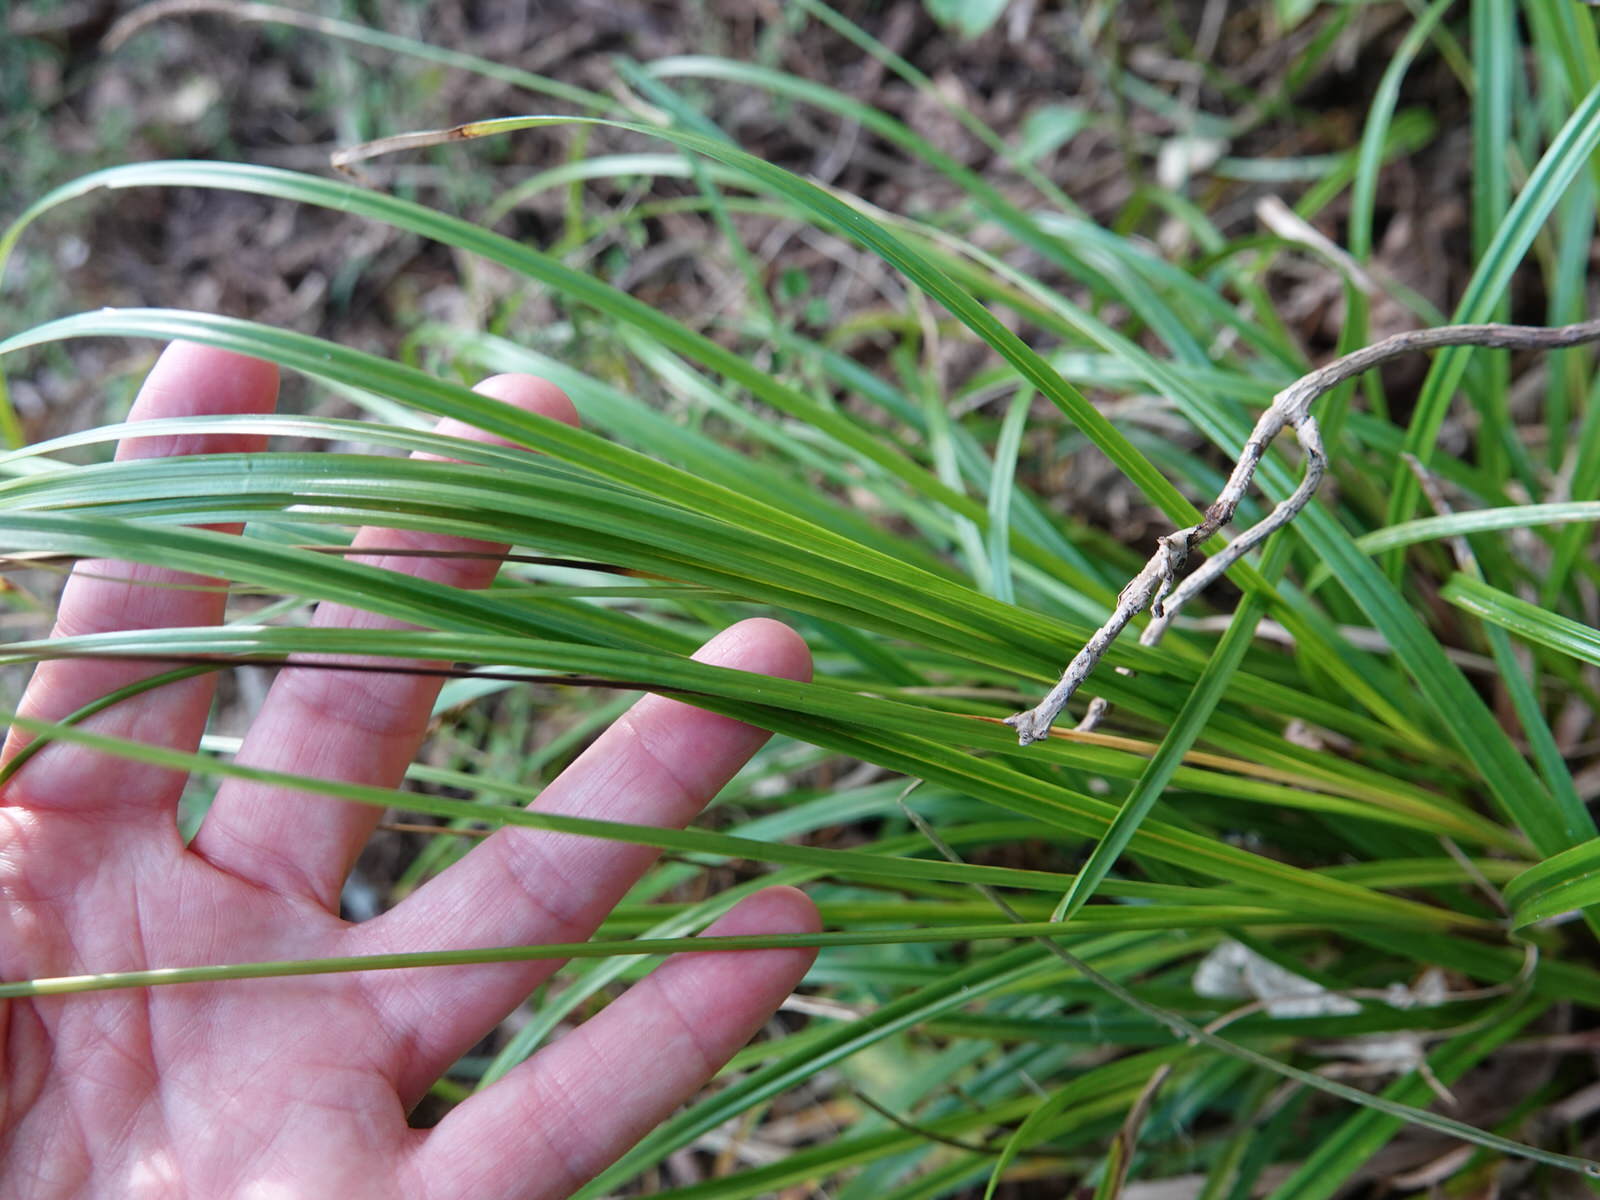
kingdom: Plantae
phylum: Tracheophyta
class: Liliopsida
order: Poales
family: Cyperaceae
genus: Carex
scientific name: Carex uncinata
